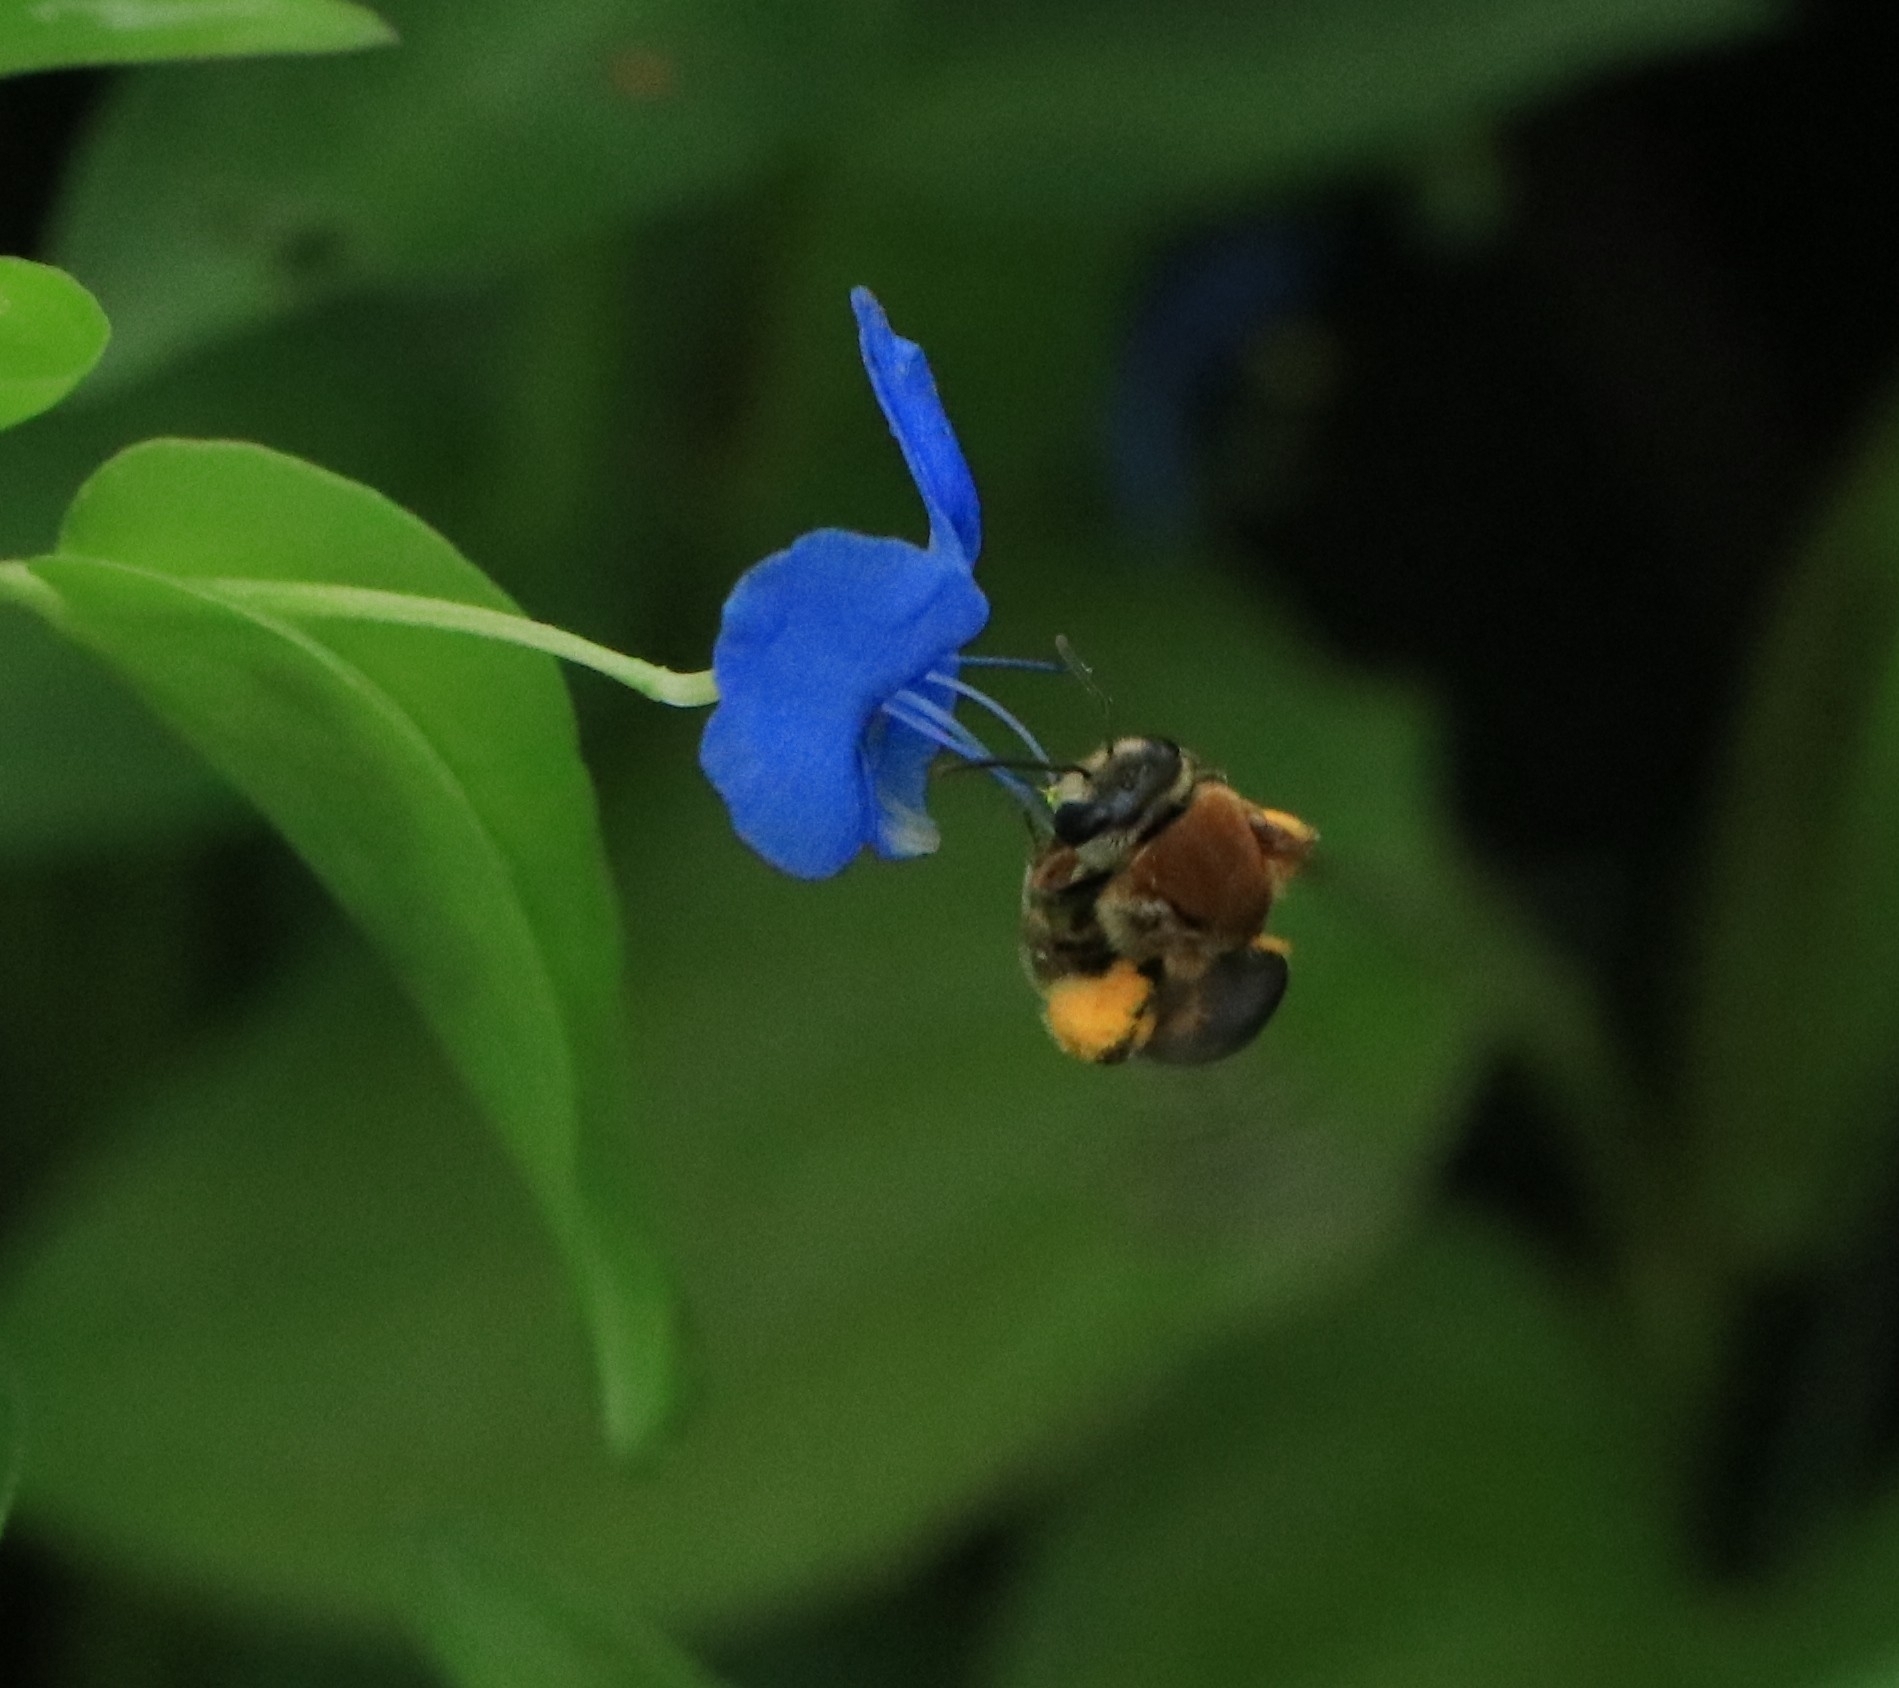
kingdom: Animalia
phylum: Arthropoda
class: Insecta
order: Hymenoptera
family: Halictidae
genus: Nomia
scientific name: Nomia thoracica
